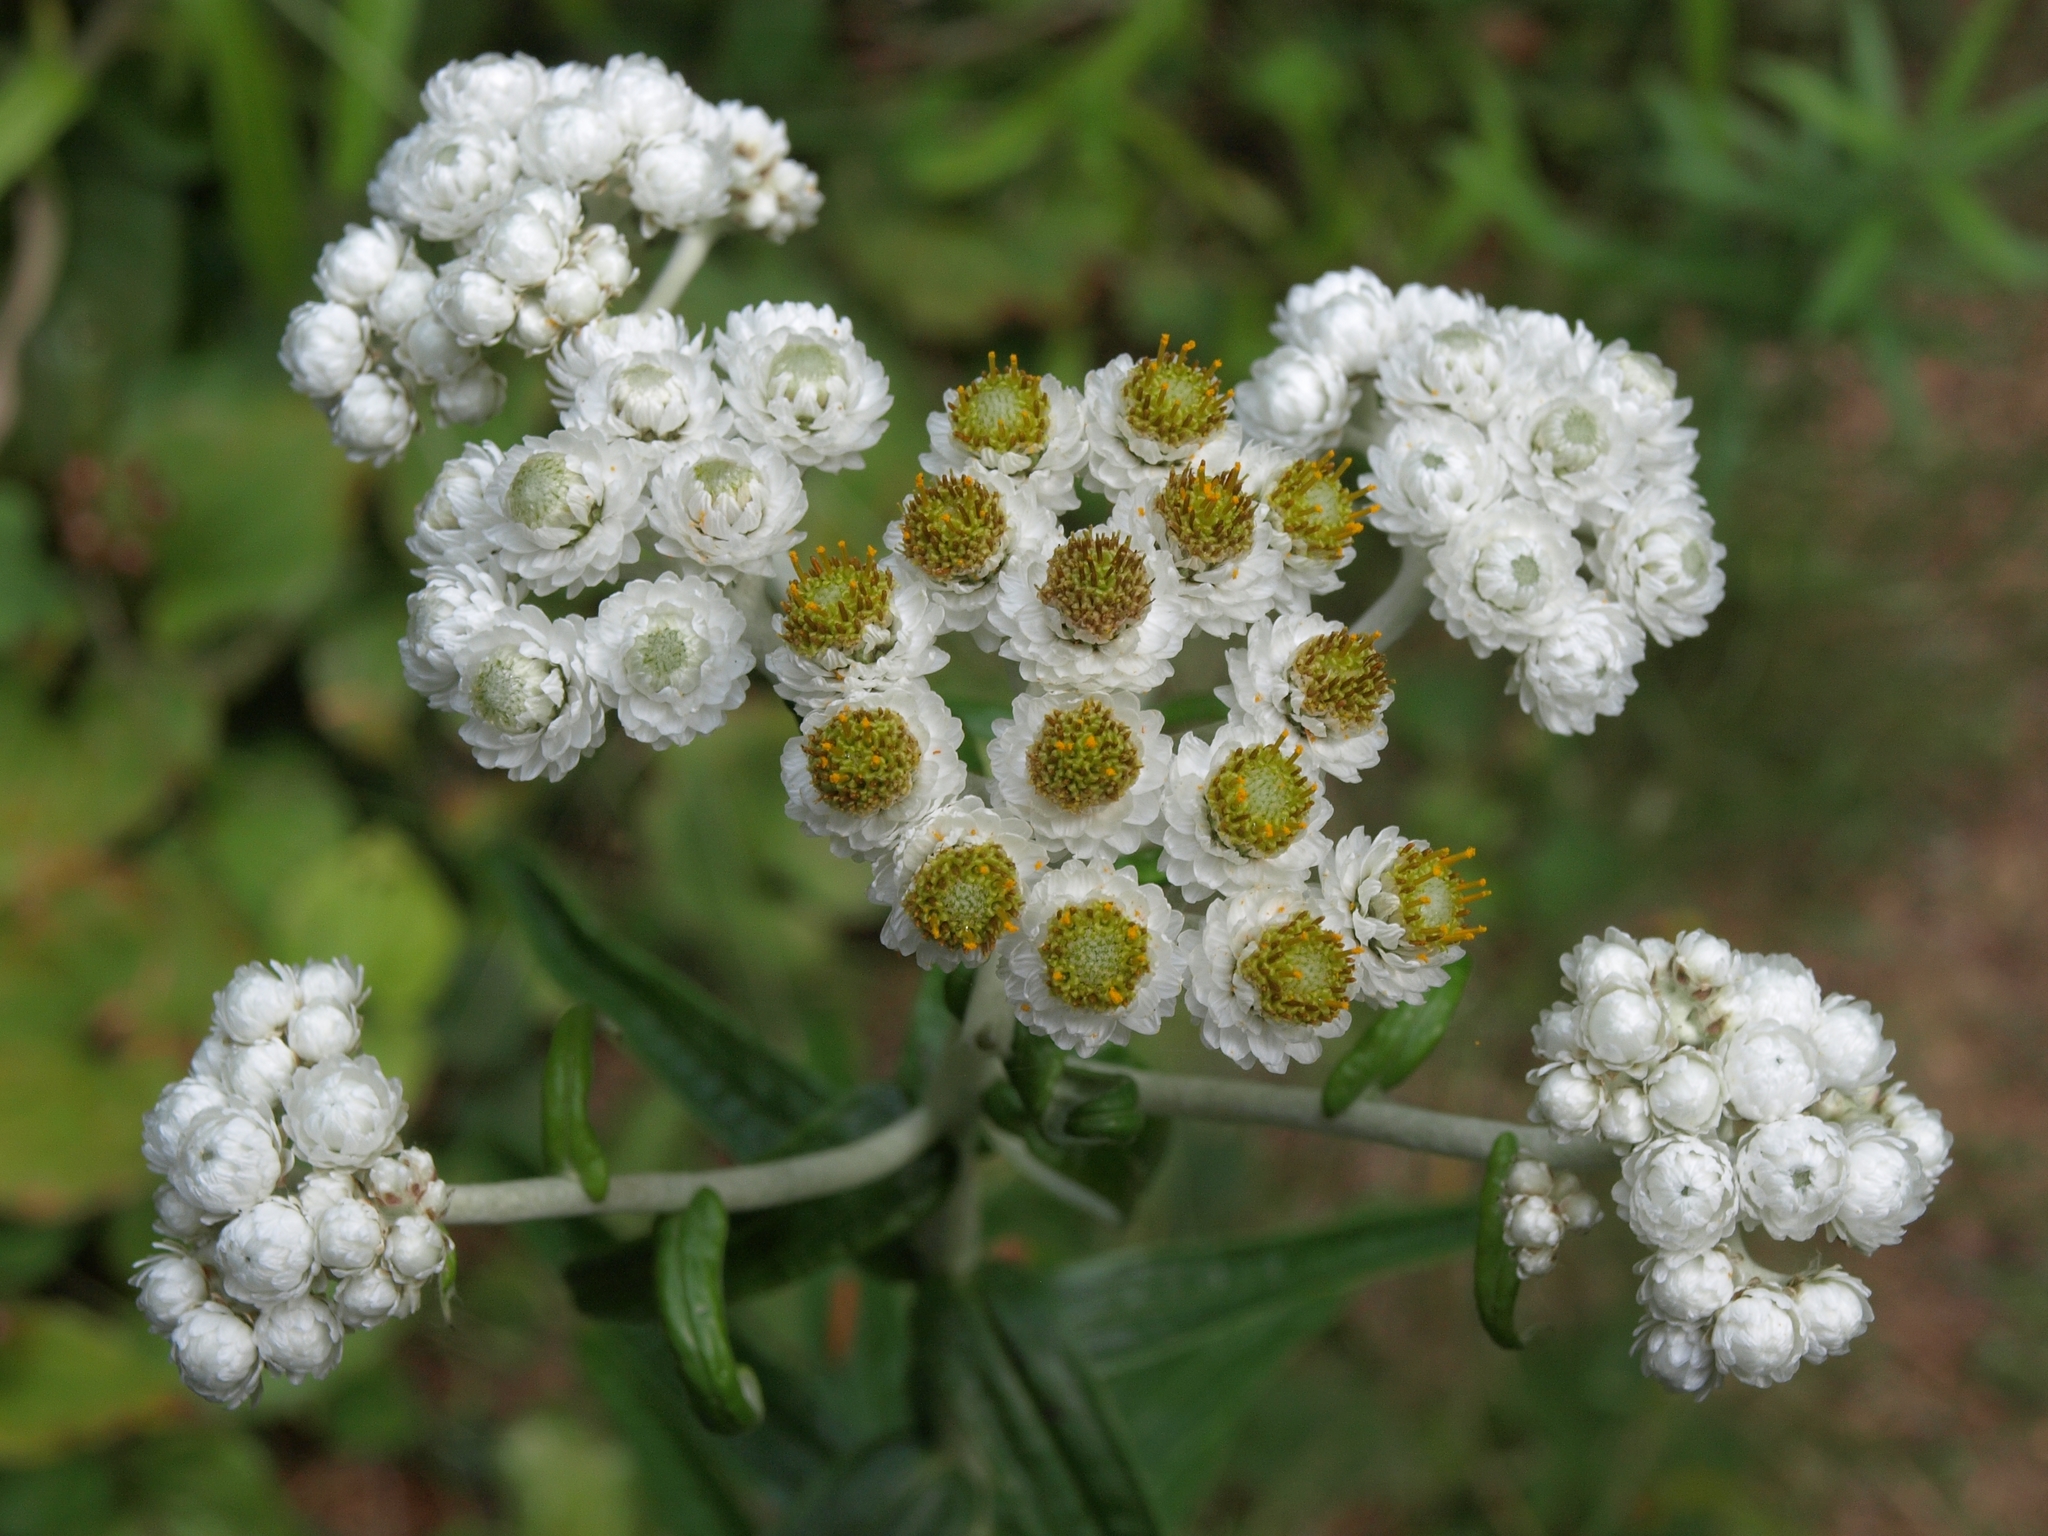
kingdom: Plantae
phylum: Tracheophyta
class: Magnoliopsida
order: Asterales
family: Asteraceae
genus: Anaphalis
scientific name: Anaphalis margaritacea
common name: Pearly everlasting
